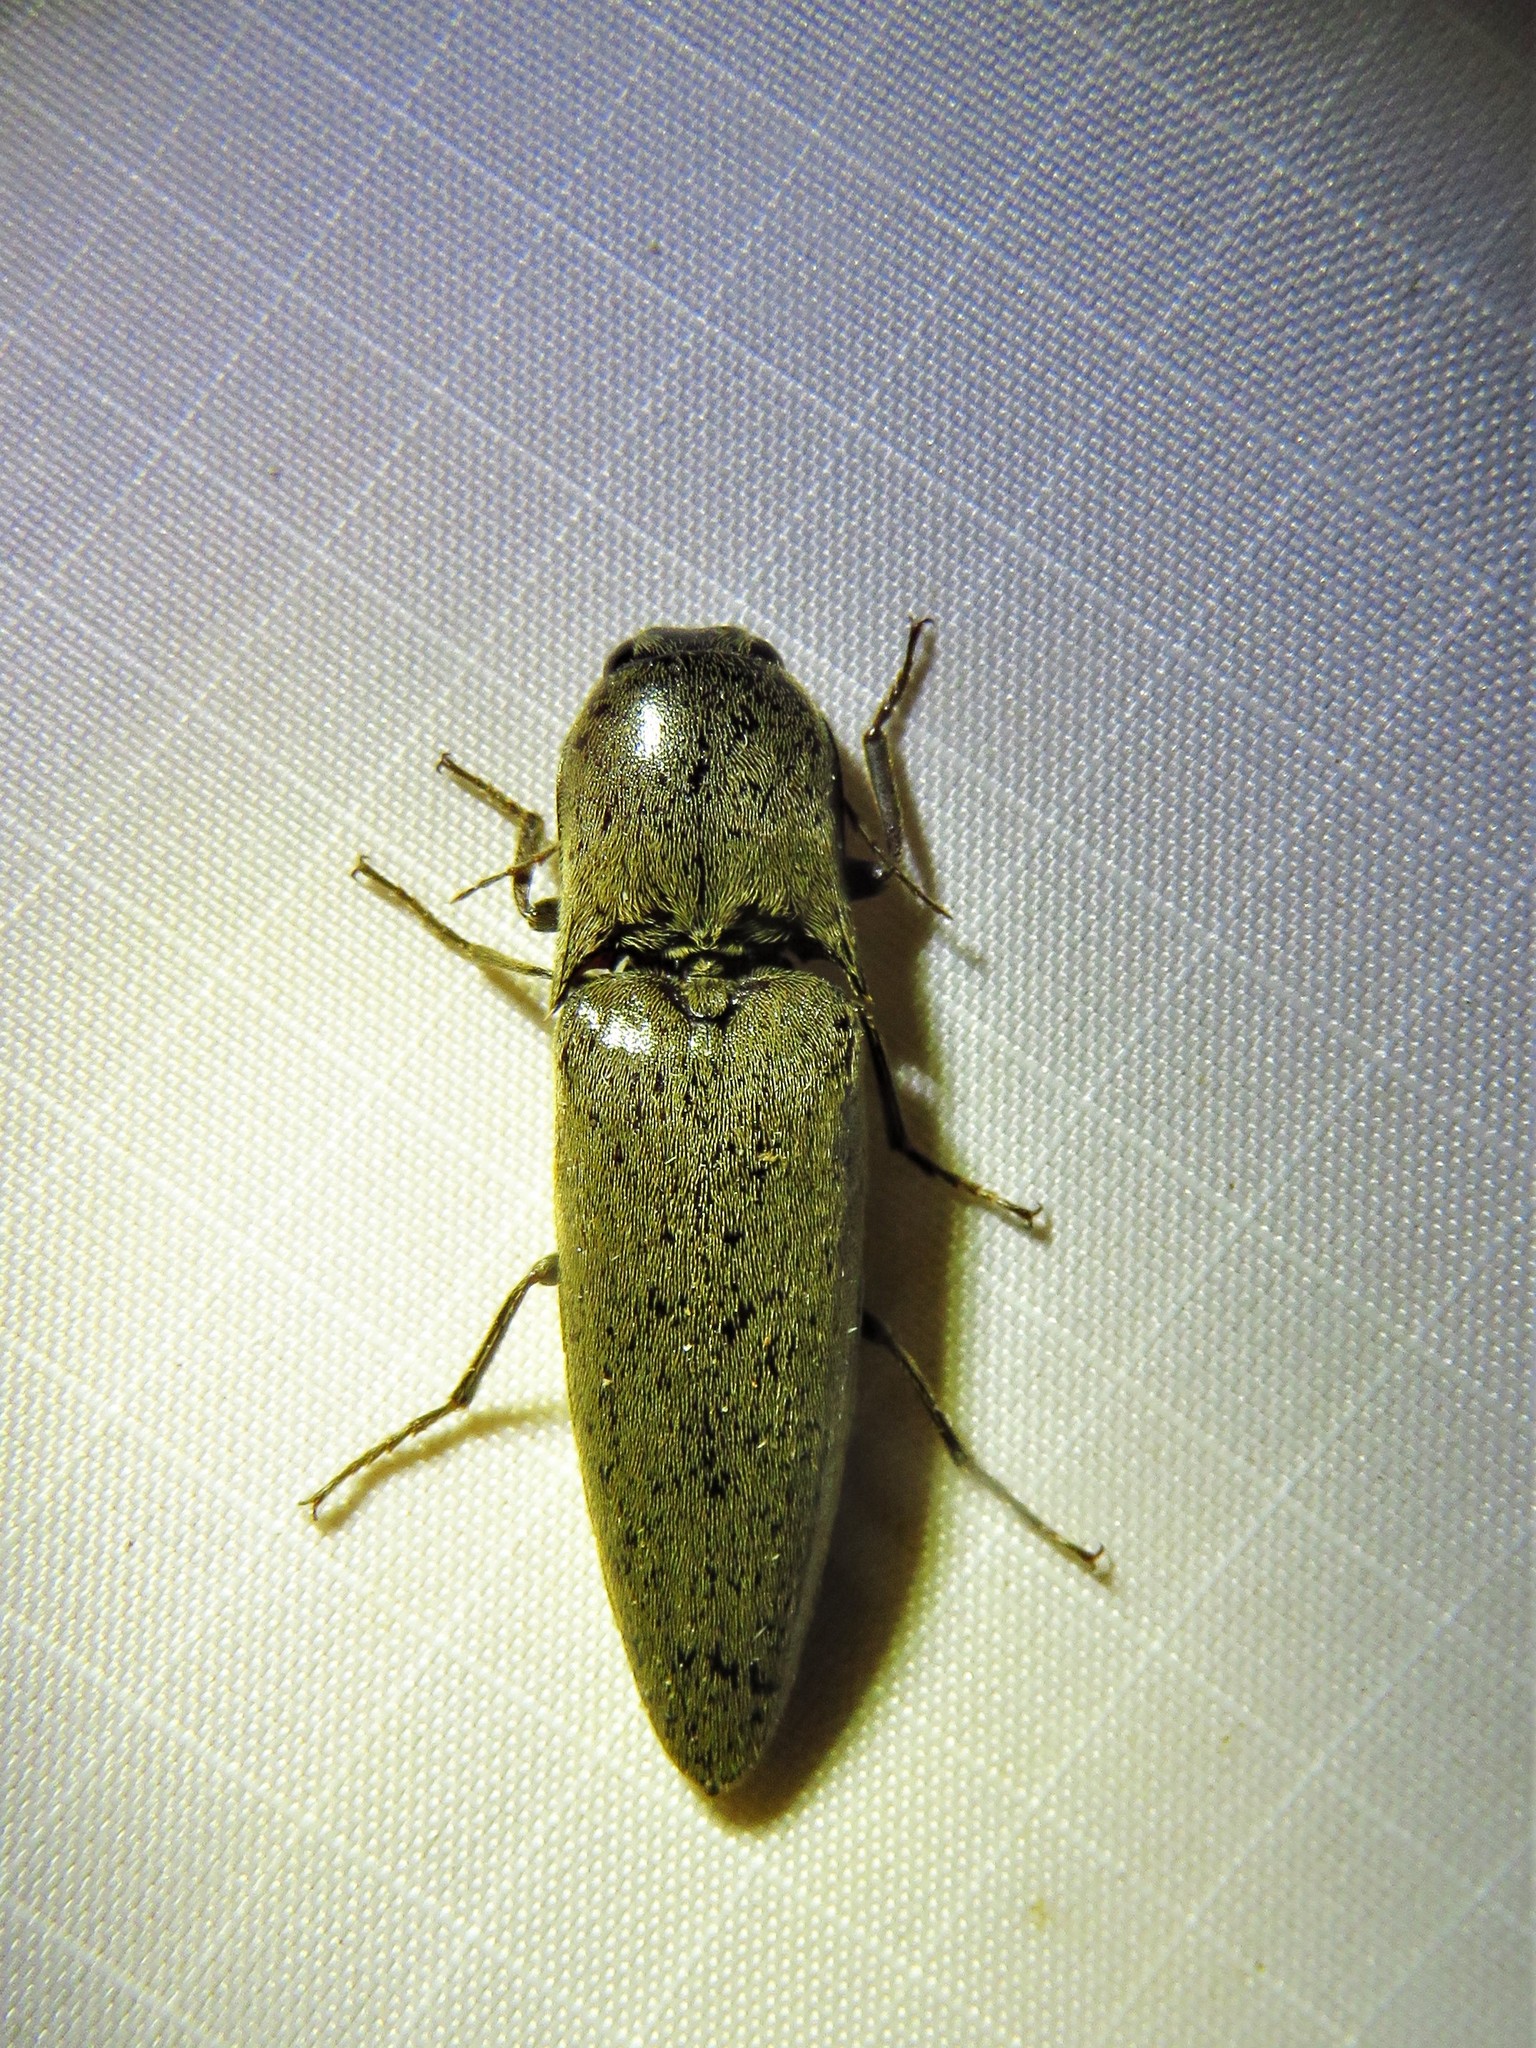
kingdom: Animalia
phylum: Arthropoda
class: Insecta
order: Coleoptera
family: Elateridae
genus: Orthostethus
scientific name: Orthostethus infuscatus
